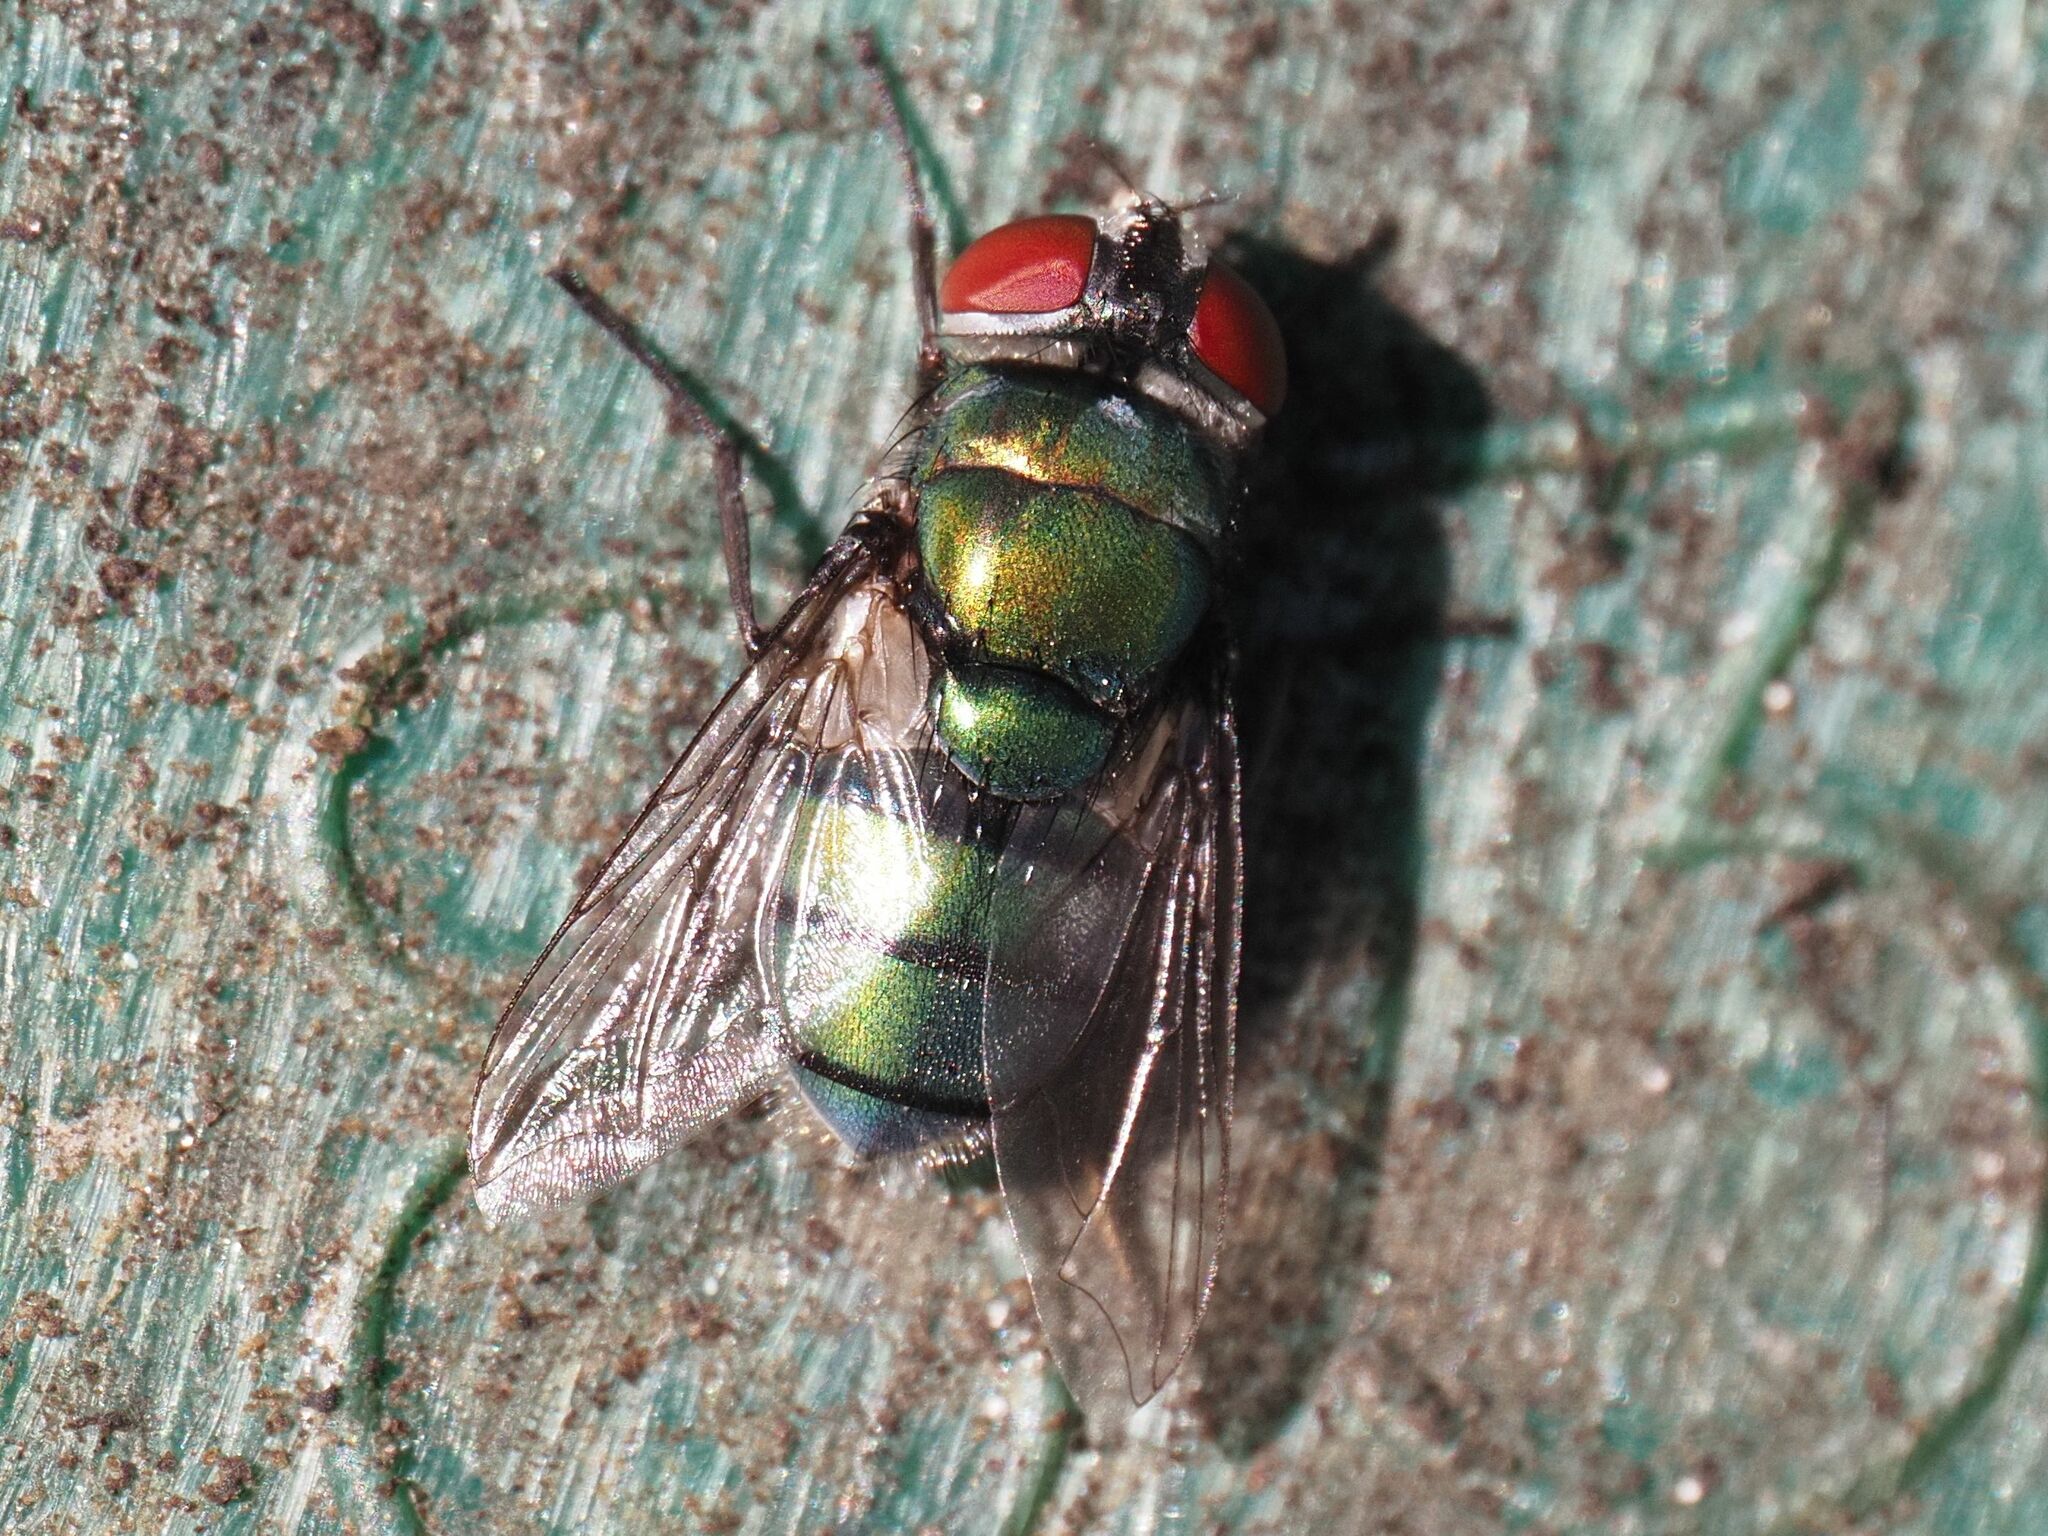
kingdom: Animalia
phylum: Arthropoda
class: Insecta
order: Diptera
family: Calliphoridae
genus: Chrysomya
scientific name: Chrysomya albiceps
